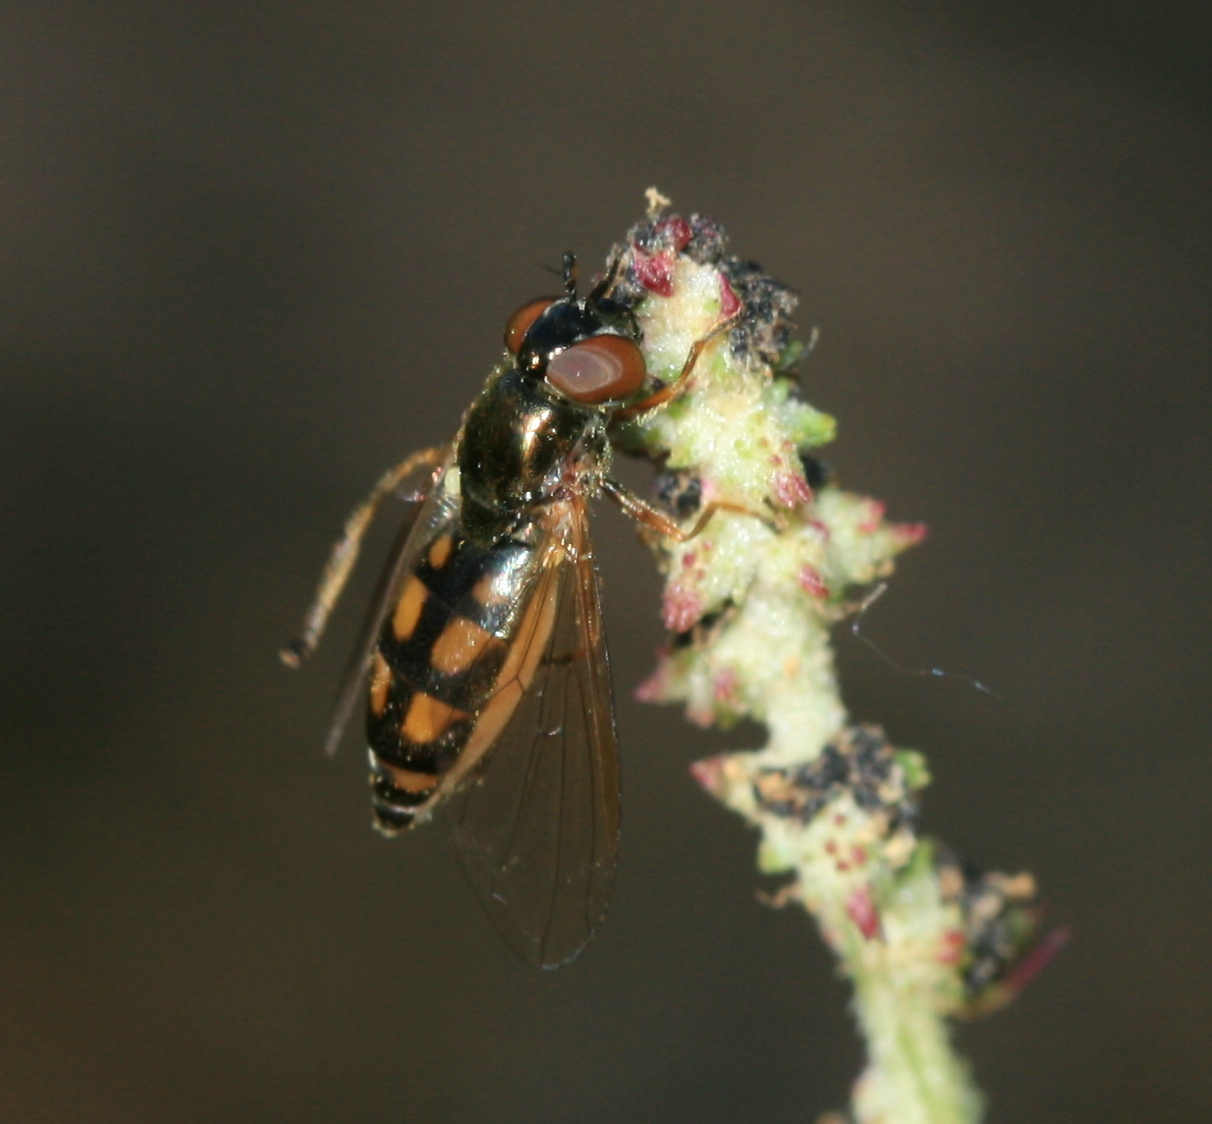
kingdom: Animalia
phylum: Arthropoda
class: Insecta
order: Diptera
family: Syrphidae
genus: Melanostoma
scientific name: Melanostoma mellina
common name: Hover fly
